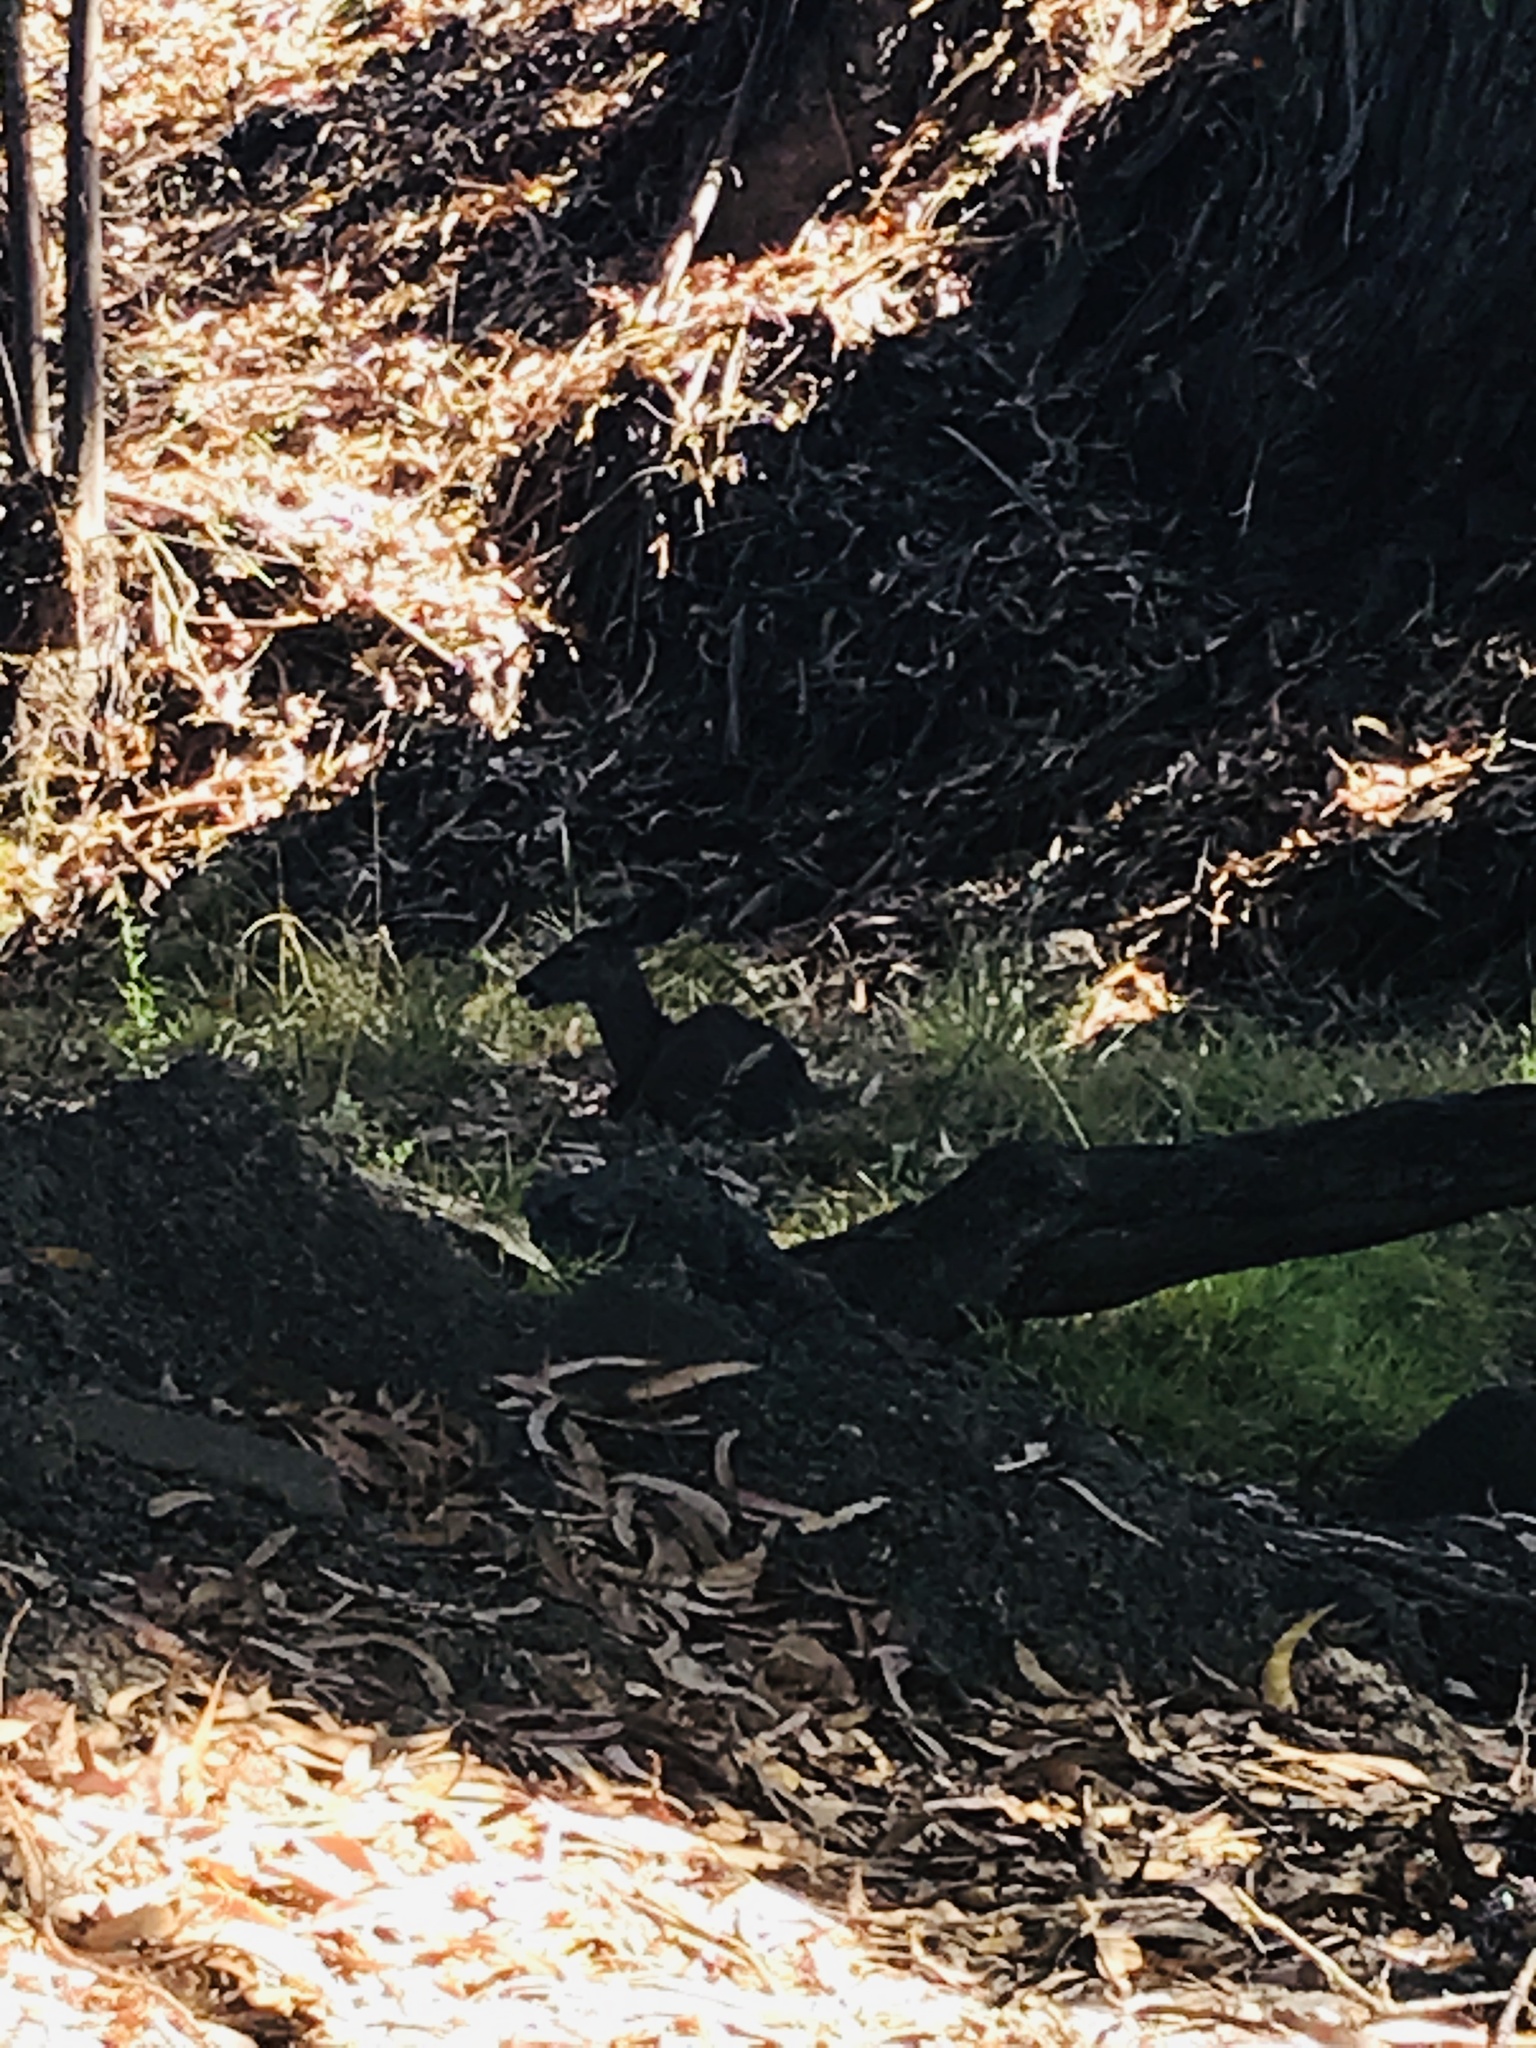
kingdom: Animalia
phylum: Chordata
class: Mammalia
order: Artiodactyla
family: Cervidae
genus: Odocoileus
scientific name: Odocoileus hemionus
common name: Mule deer
